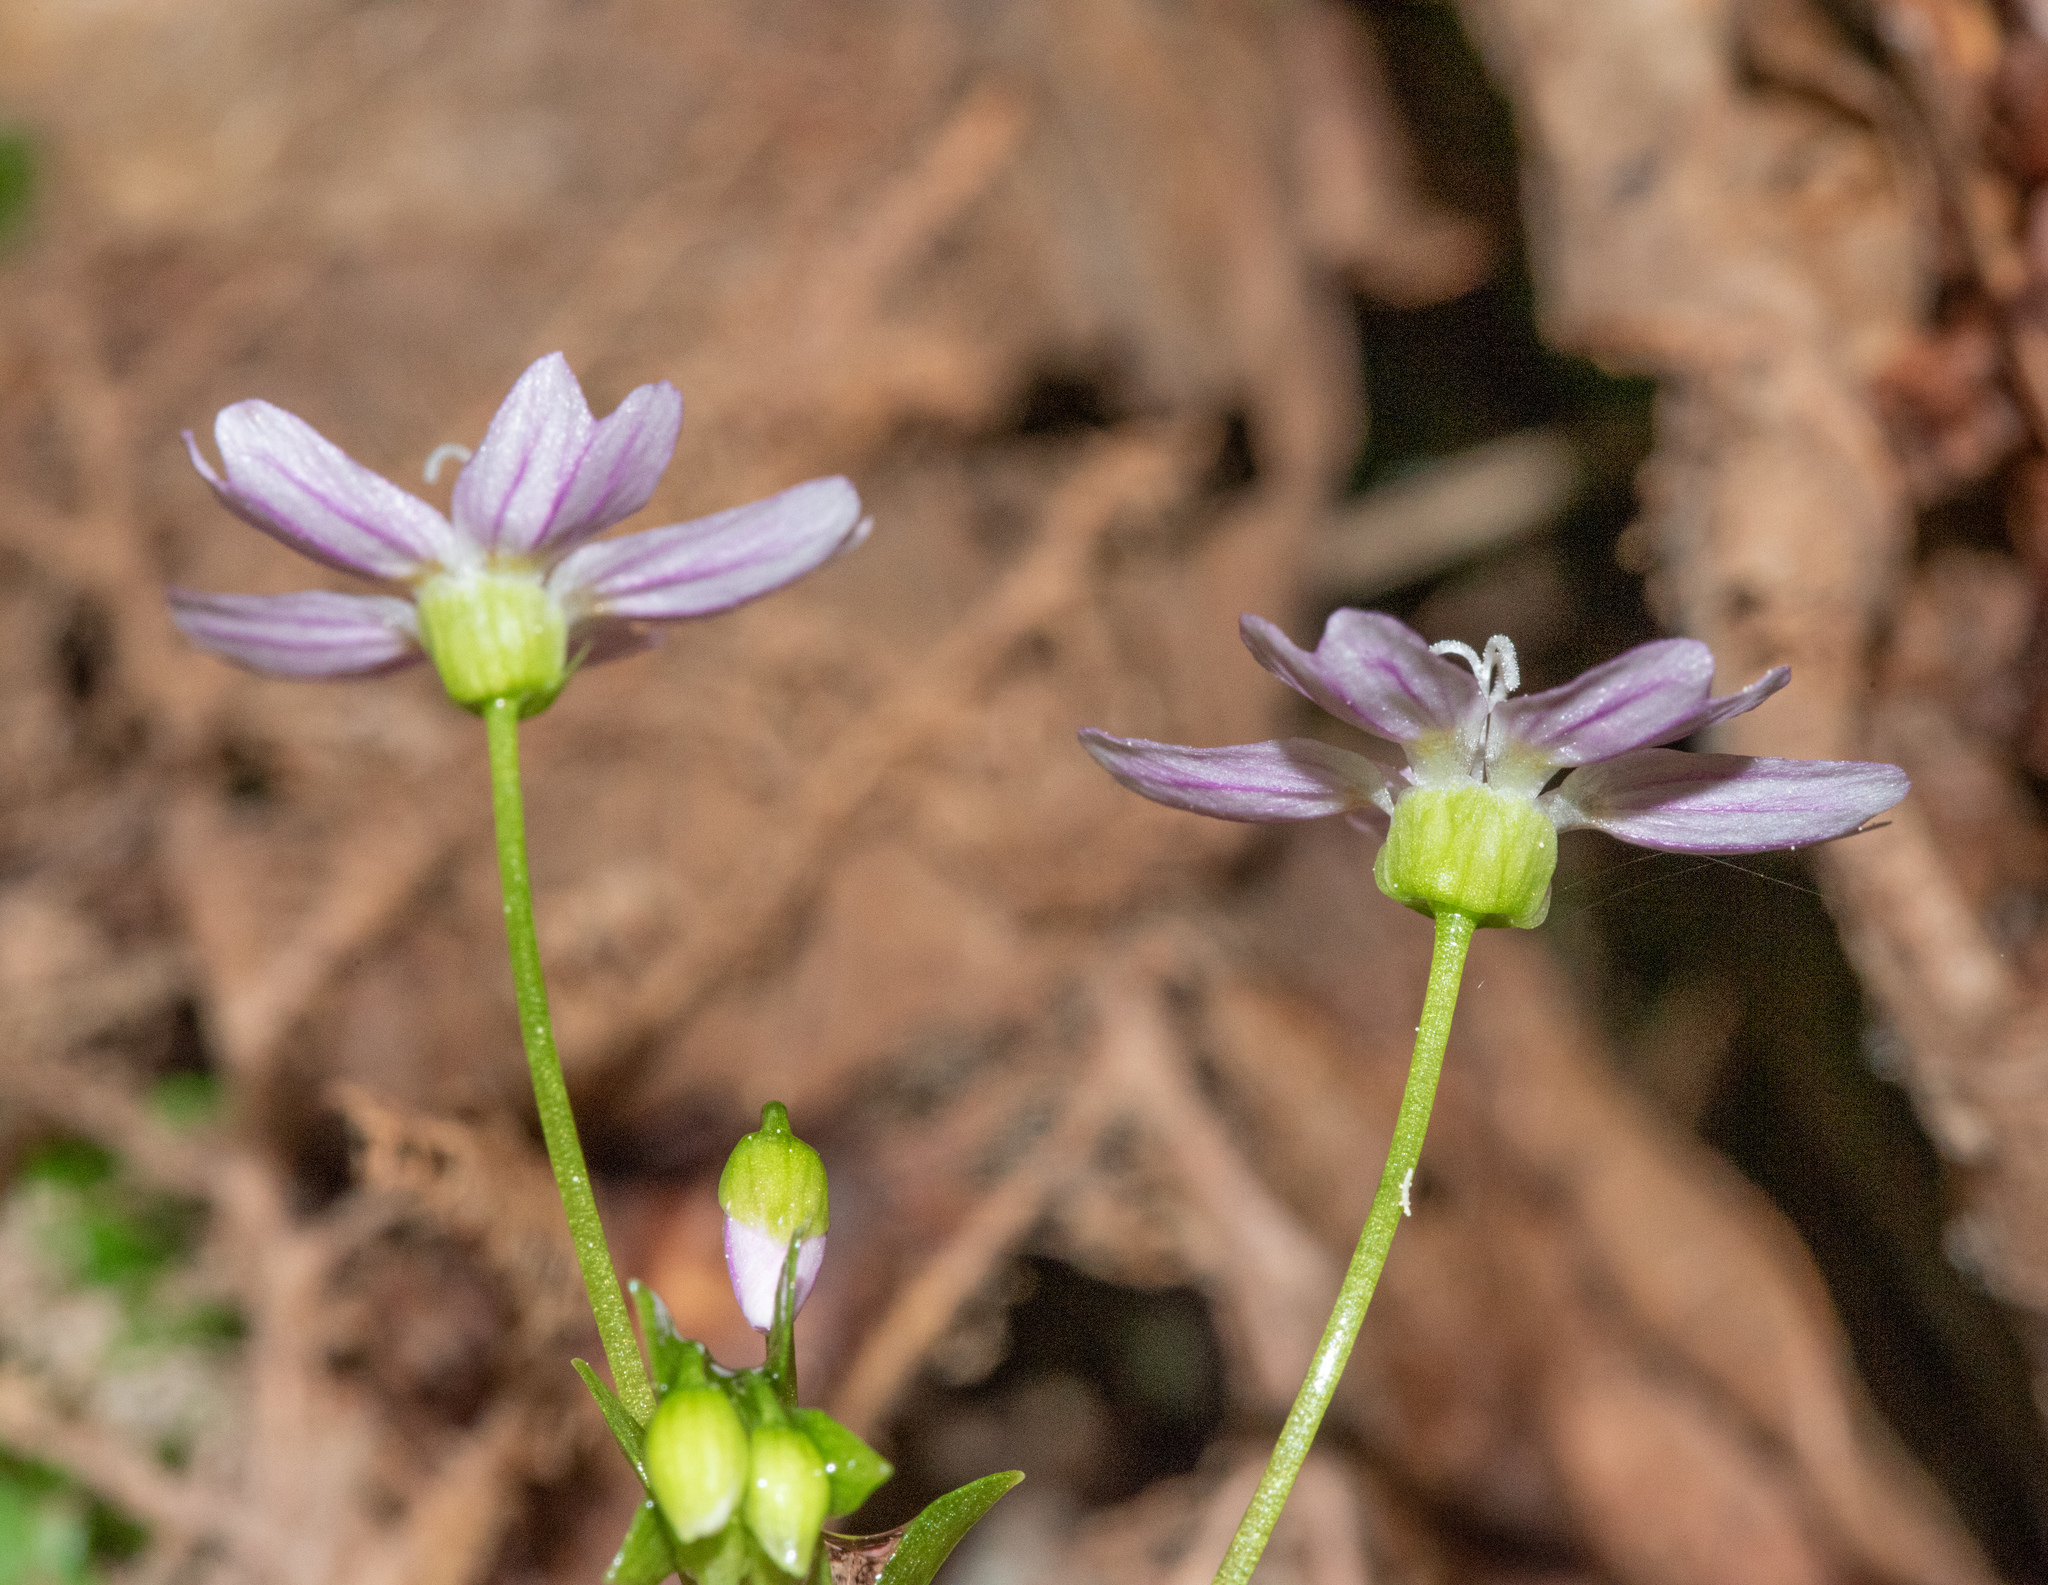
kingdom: Plantae
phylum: Tracheophyta
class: Magnoliopsida
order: Caryophyllales
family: Montiaceae
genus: Claytonia
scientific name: Claytonia sibirica
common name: Pink purslane
